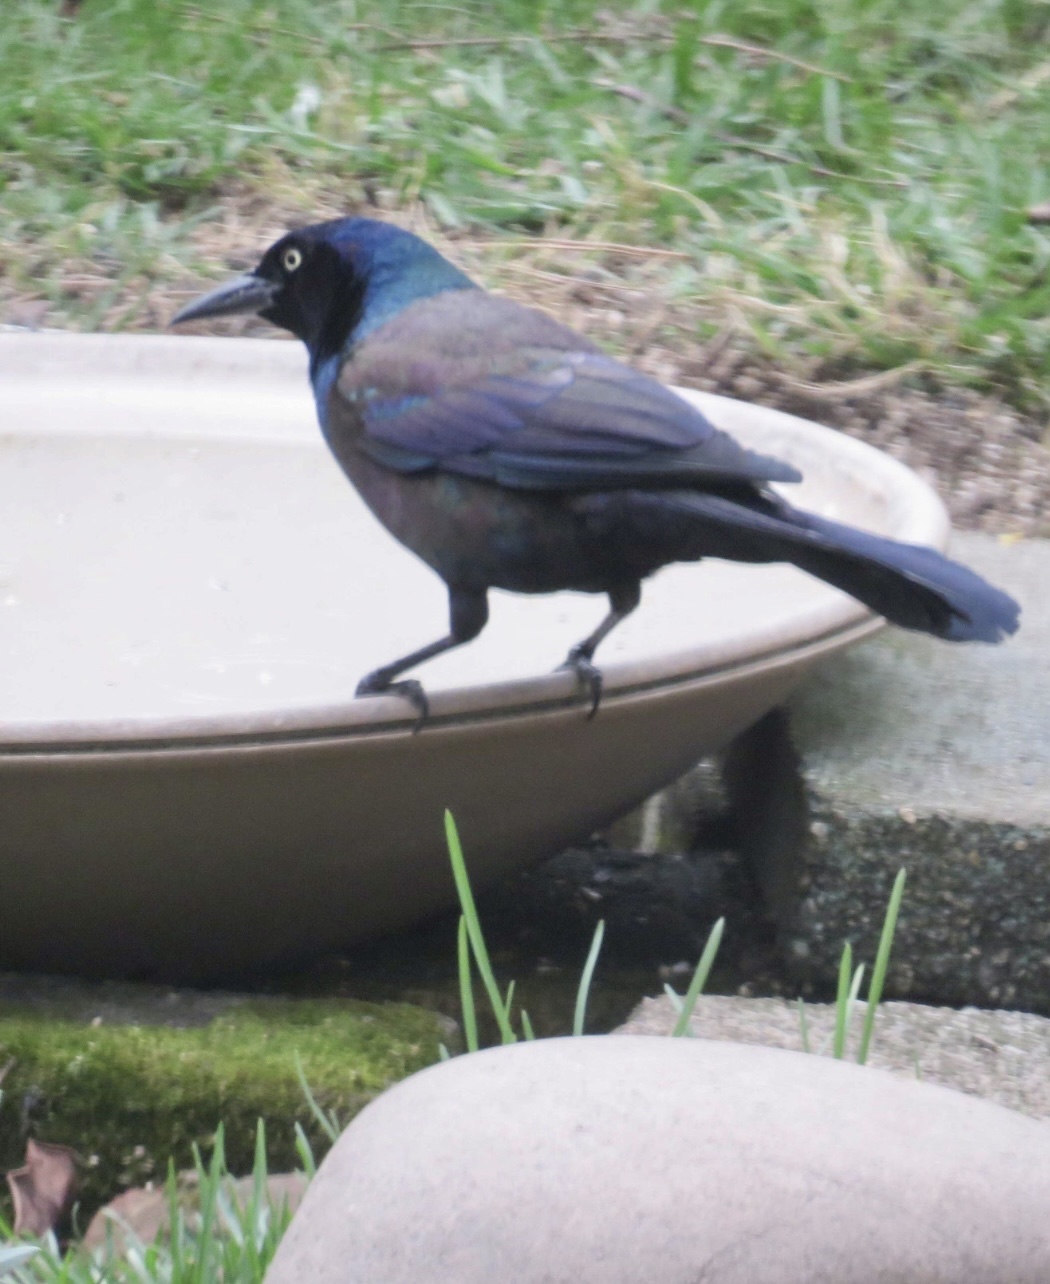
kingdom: Animalia
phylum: Chordata
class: Aves
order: Passeriformes
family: Icteridae
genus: Quiscalus
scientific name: Quiscalus quiscula
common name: Common grackle
